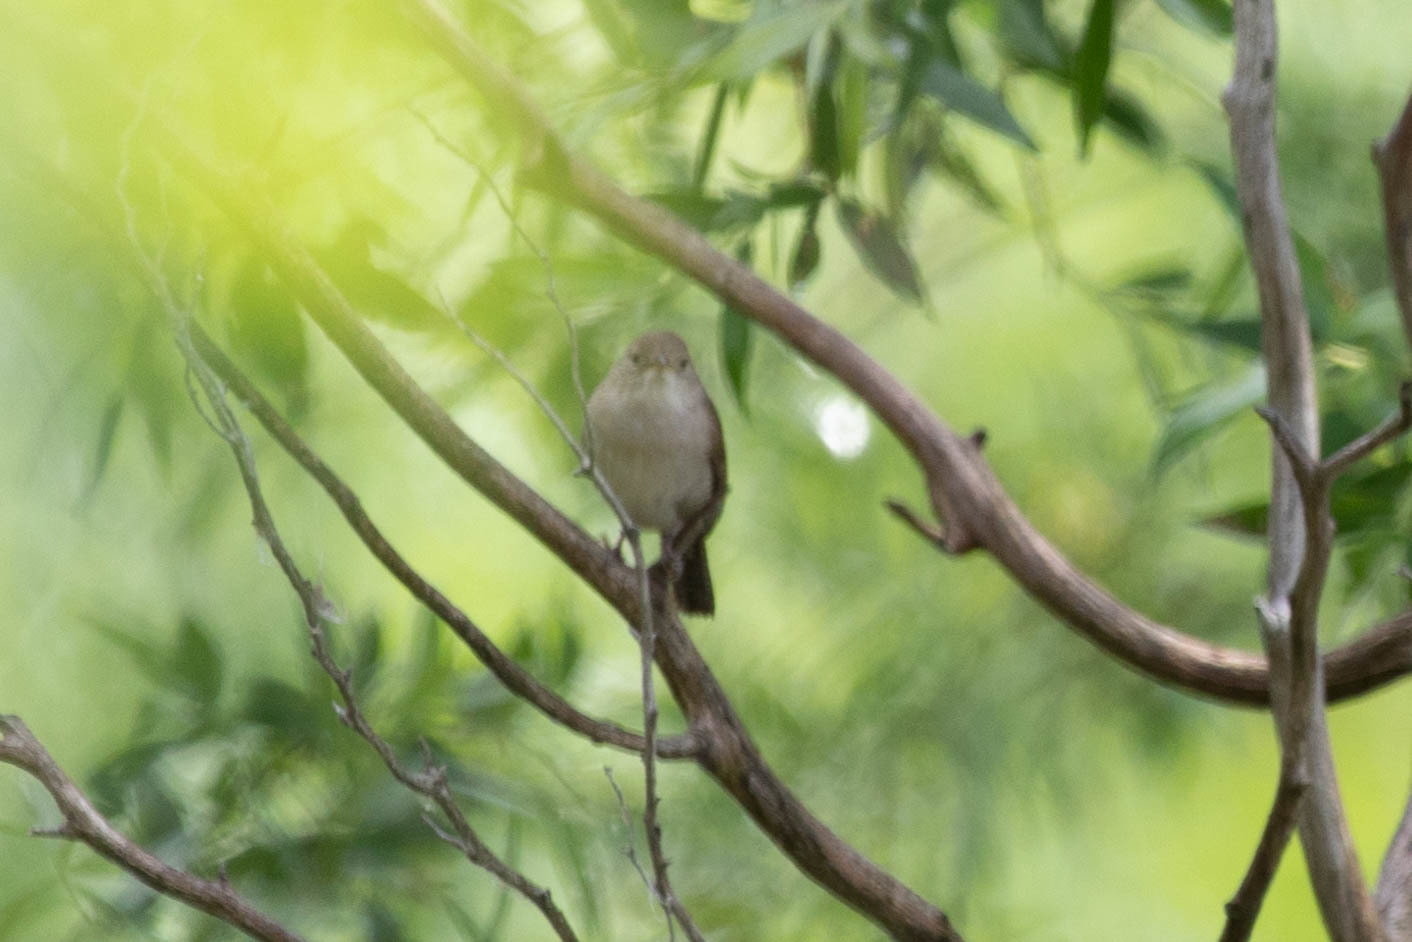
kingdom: Animalia
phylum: Chordata
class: Aves
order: Passeriformes
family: Troglodytidae
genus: Troglodytes
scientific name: Troglodytes aedon
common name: House wren
